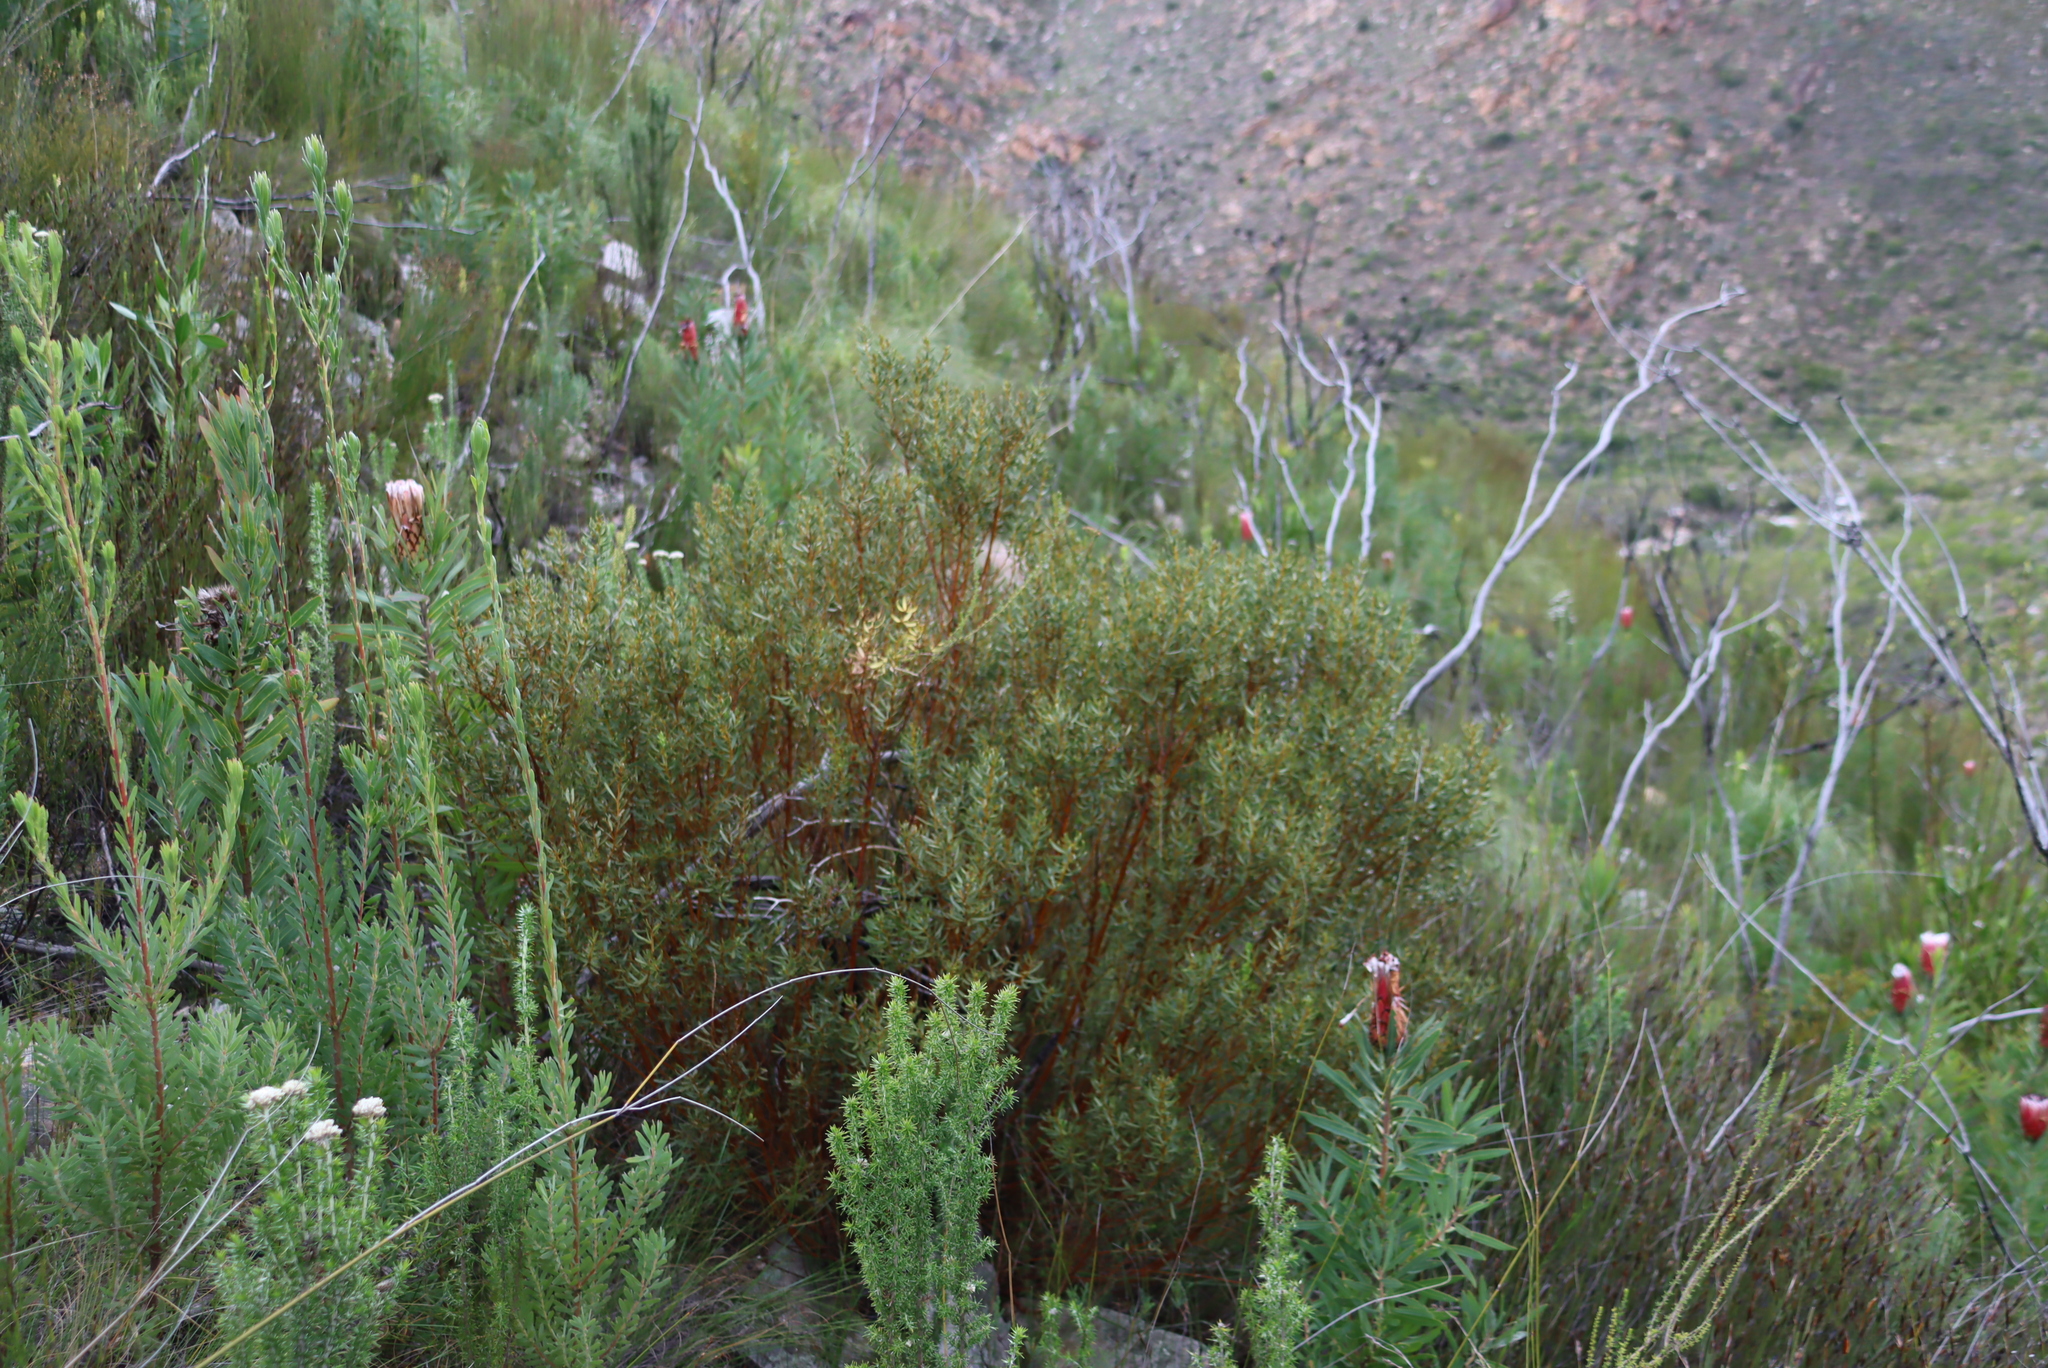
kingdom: Plantae
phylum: Tracheophyta
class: Magnoliopsida
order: Fabales
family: Fabaceae
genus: Cyclopia
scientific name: Cyclopia intermedia
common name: Mountain tea
